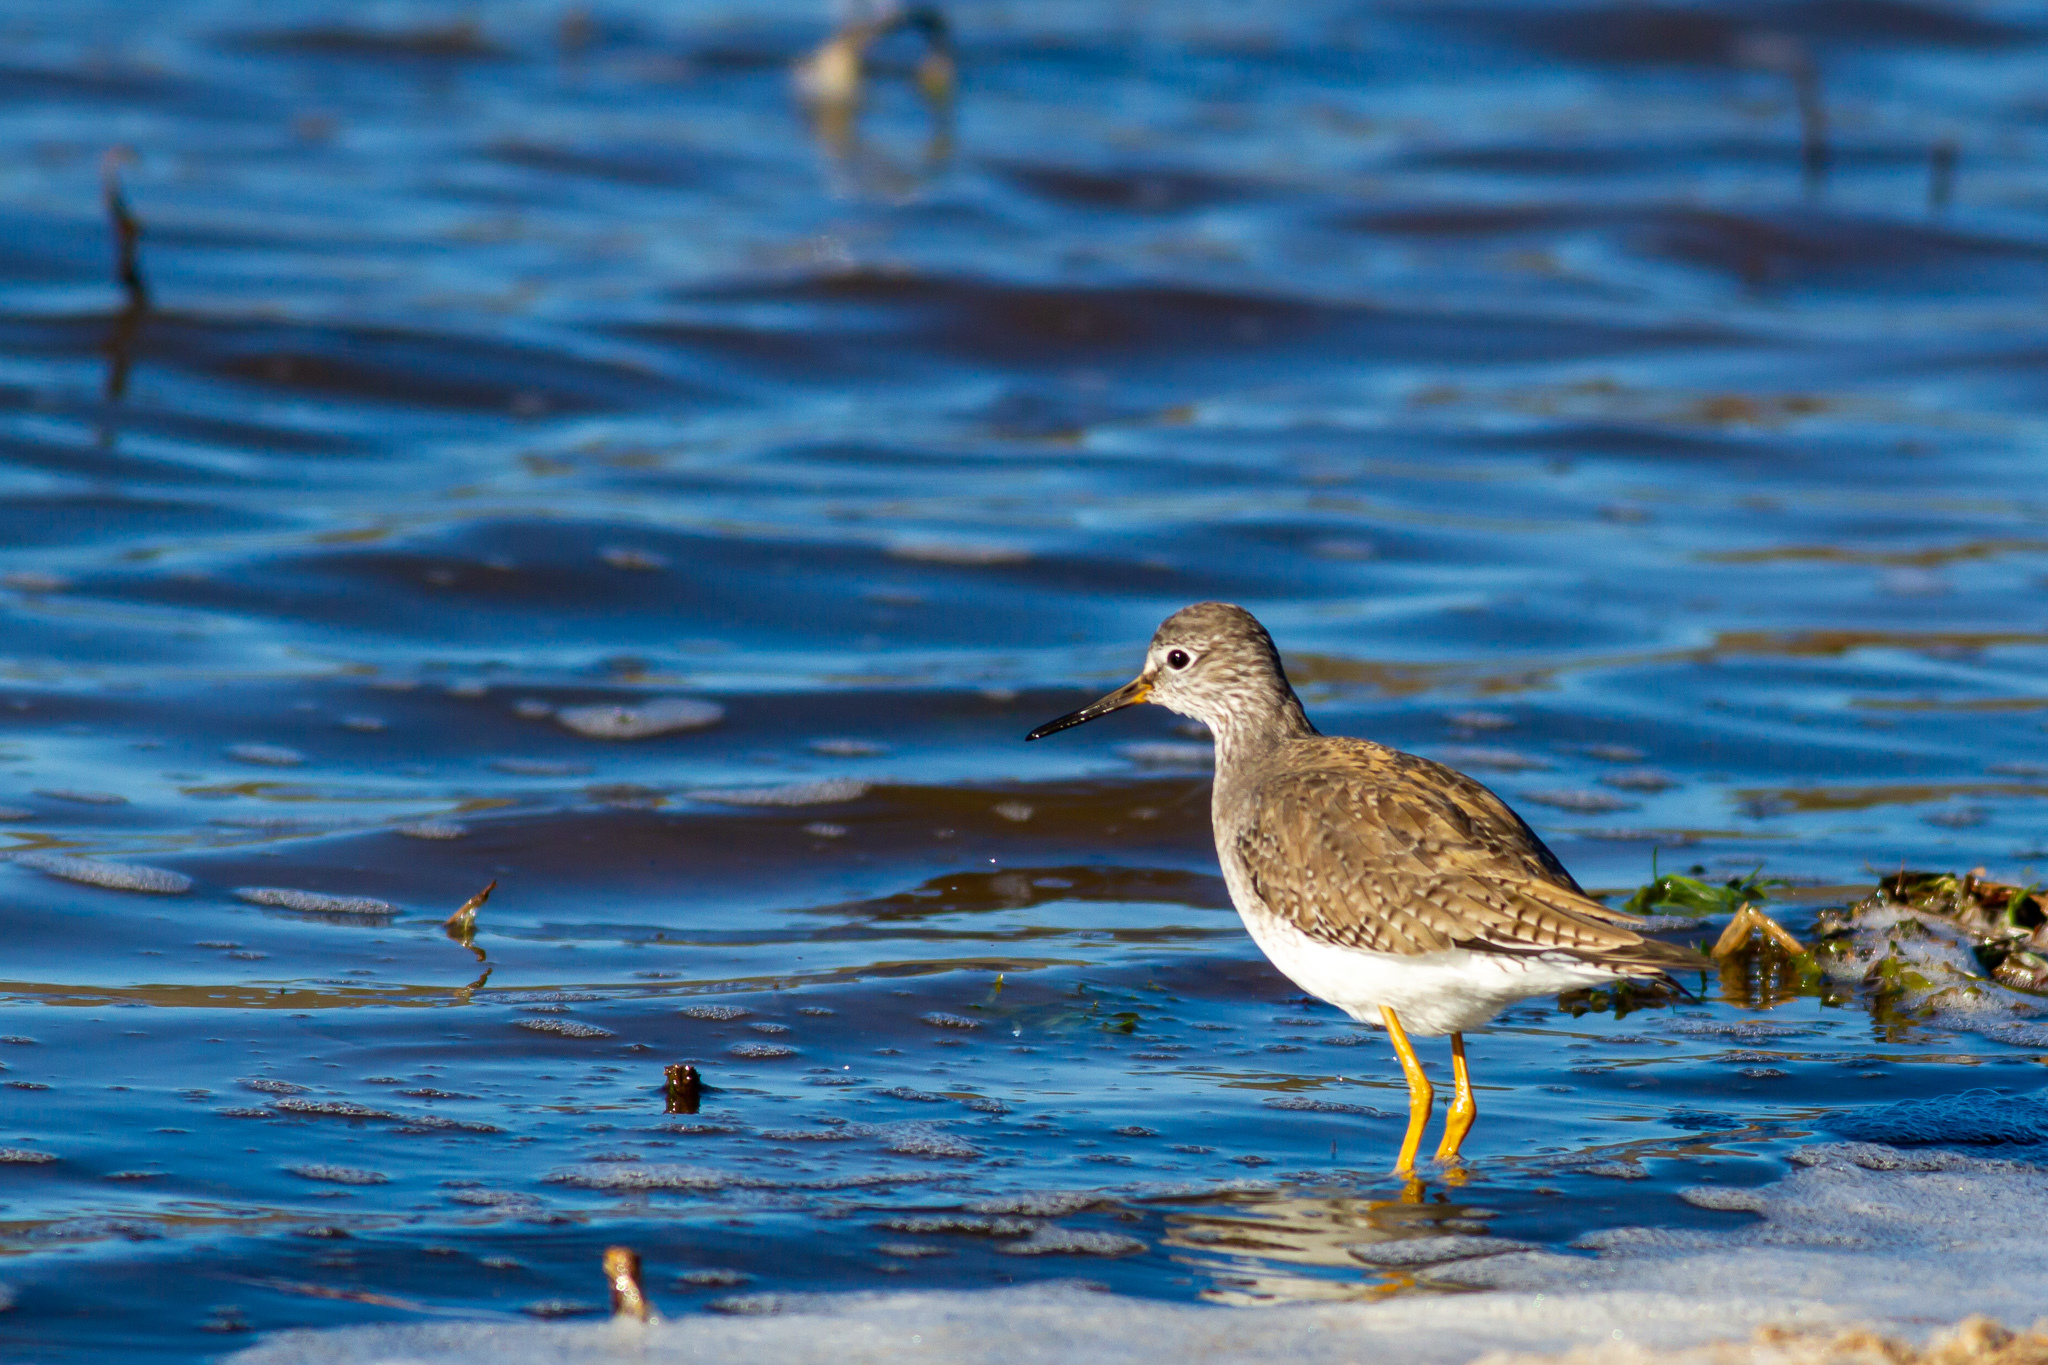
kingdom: Animalia
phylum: Chordata
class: Aves
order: Charadriiformes
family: Scolopacidae
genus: Tringa
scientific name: Tringa flavipes
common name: Lesser yellowlegs
